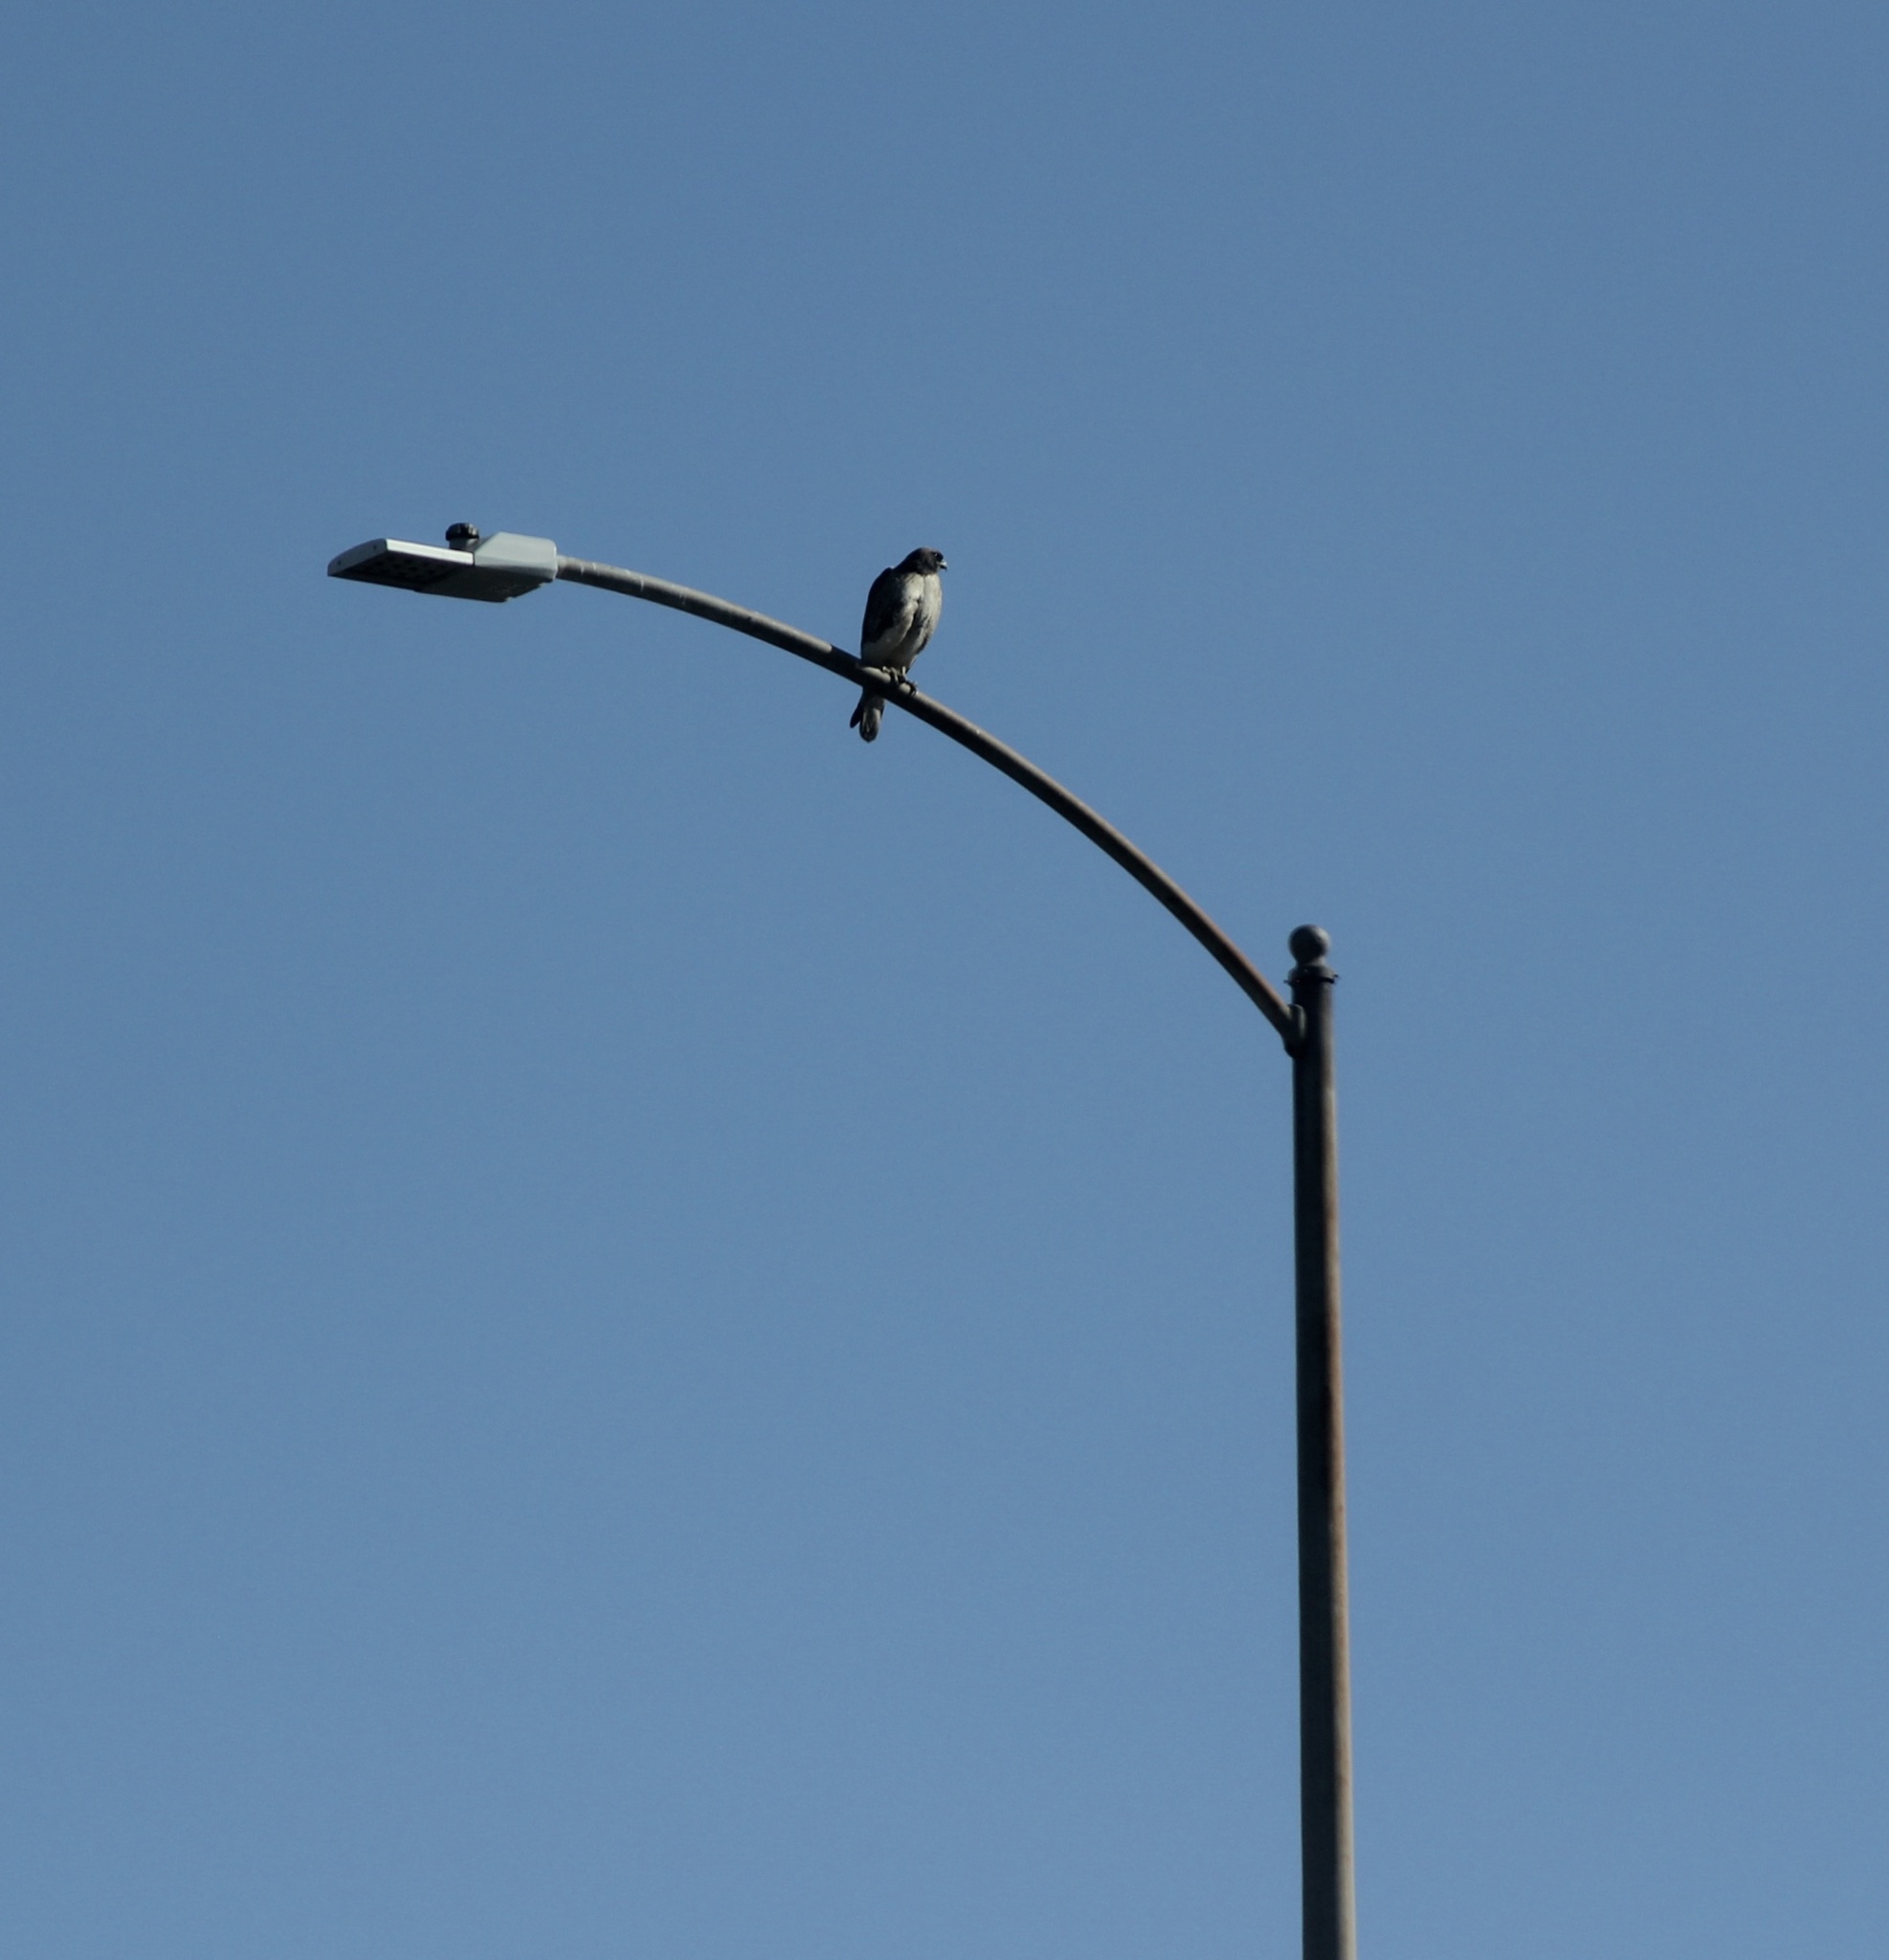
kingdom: Animalia
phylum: Chordata
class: Aves
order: Accipitriformes
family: Accipitridae
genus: Buteo
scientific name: Buteo jamaicensis
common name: Red-tailed hawk
